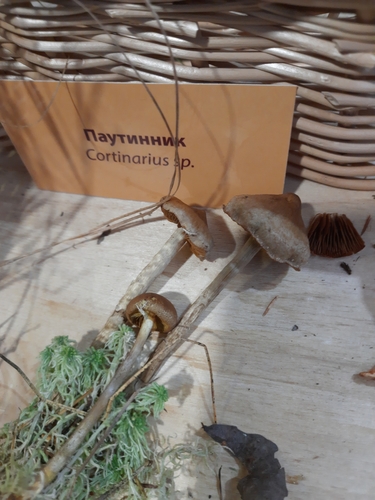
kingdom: Fungi
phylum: Basidiomycota
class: Agaricomycetes
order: Agaricales
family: Cortinariaceae
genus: Cortinarius
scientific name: Cortinarius
